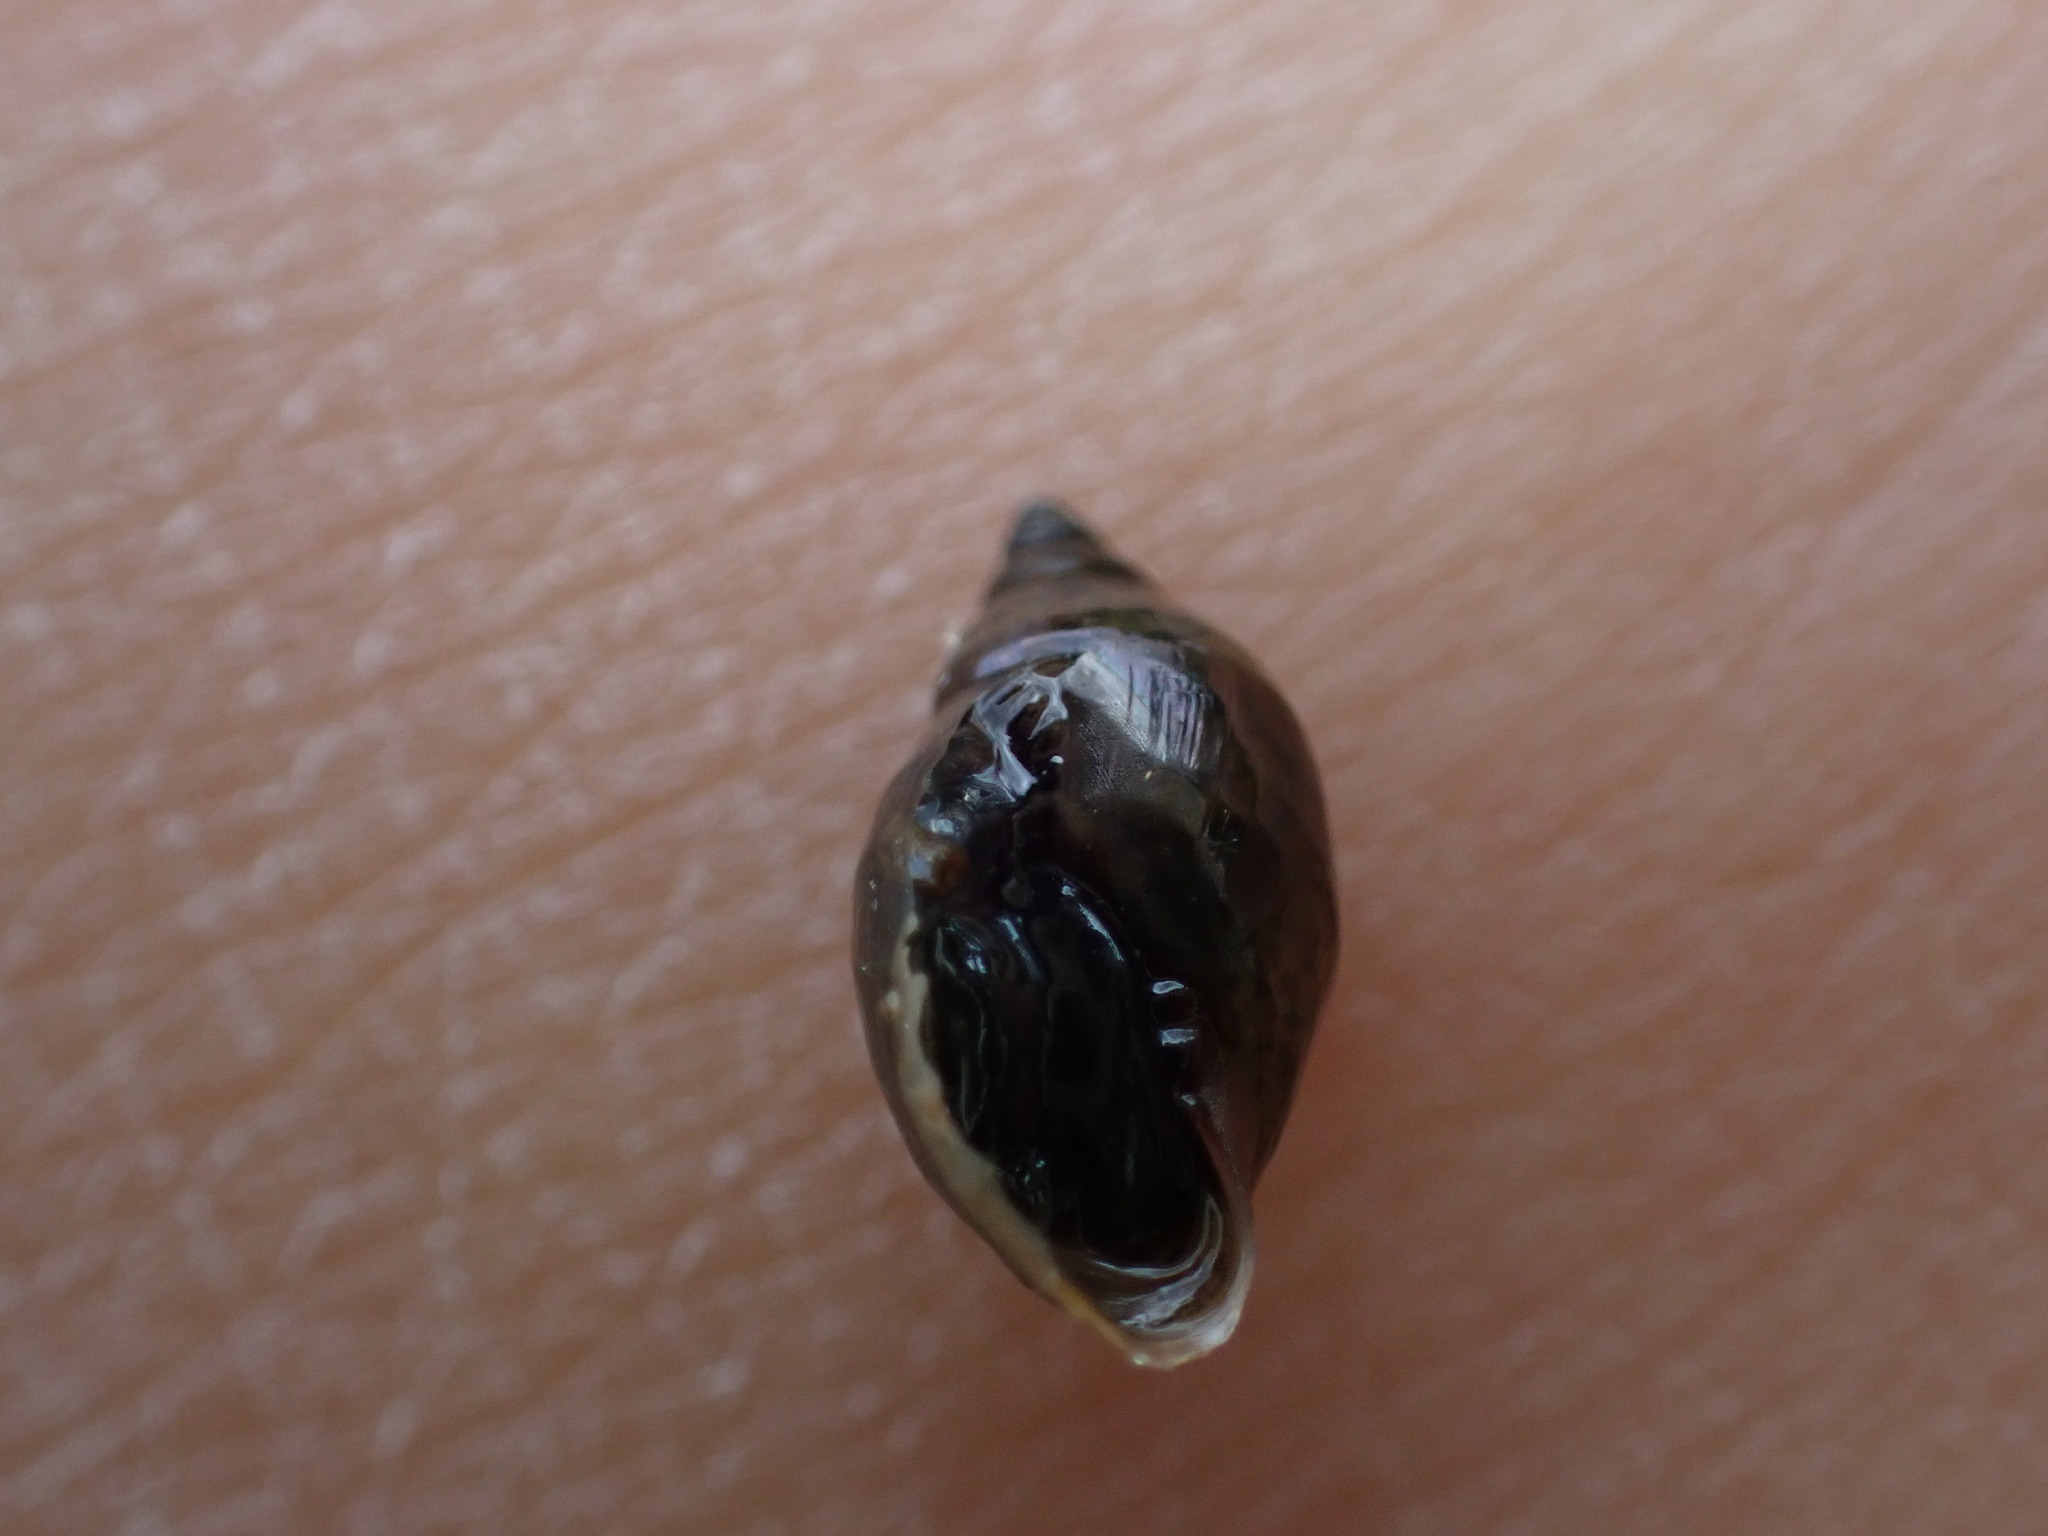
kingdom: Animalia
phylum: Mollusca
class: Gastropoda
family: Physidae
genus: Physella
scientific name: Physella acuta
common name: European physa
